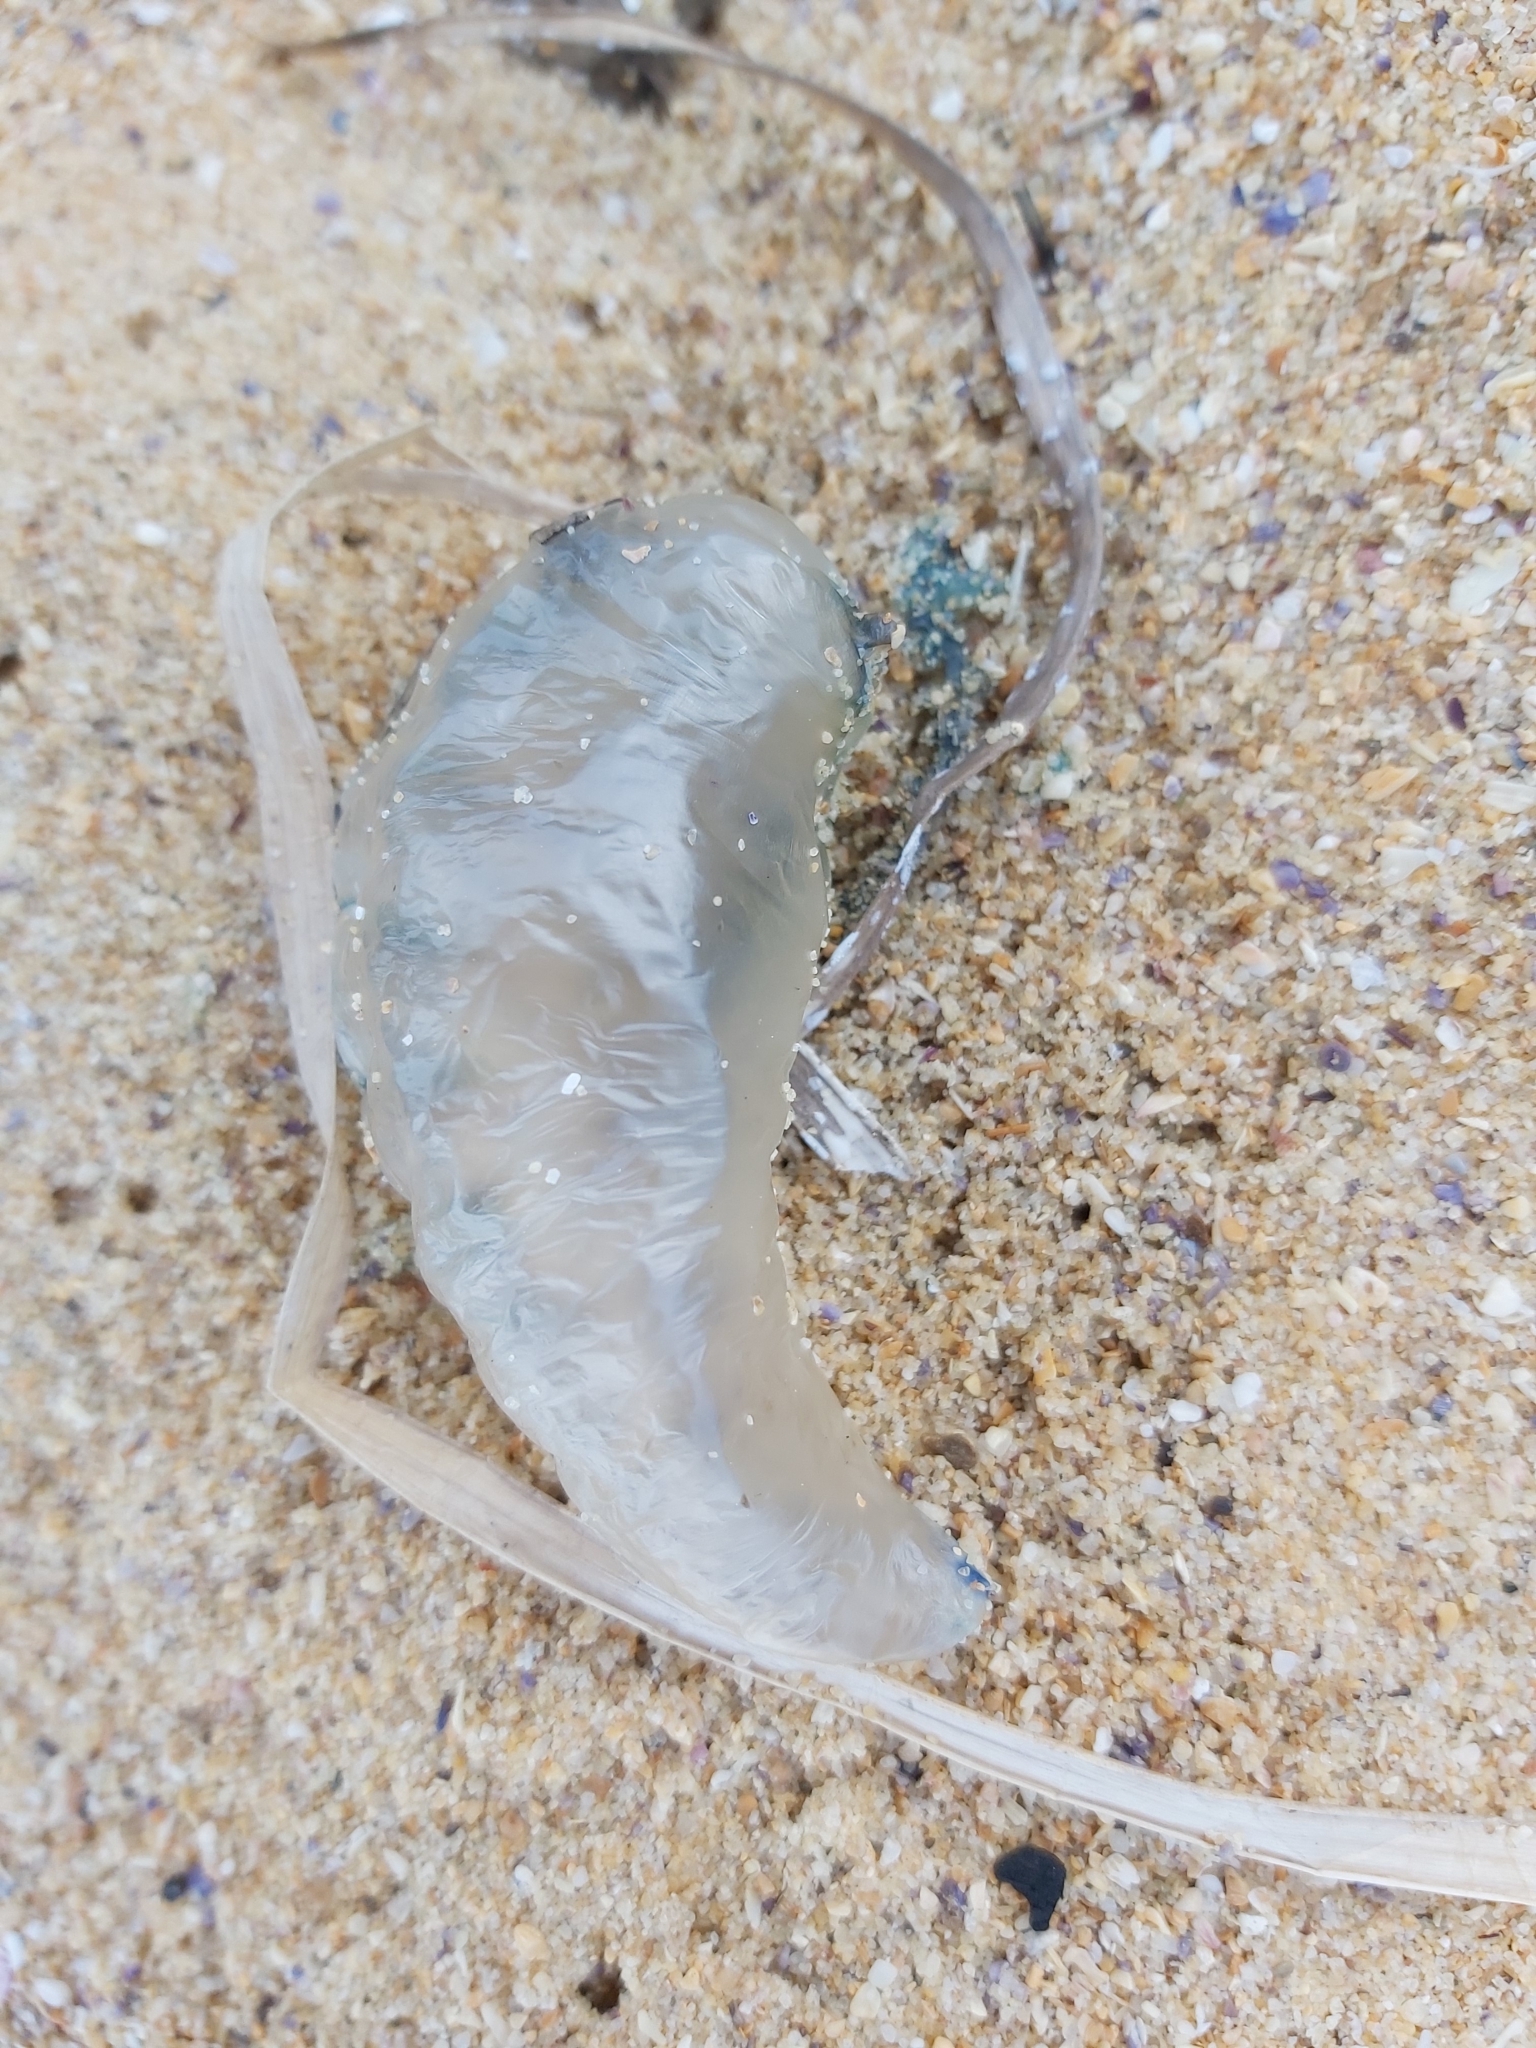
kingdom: Animalia
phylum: Cnidaria
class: Hydrozoa
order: Siphonophorae
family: Physaliidae
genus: Physalia
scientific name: Physalia physalis
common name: Portuguese man-of-war
